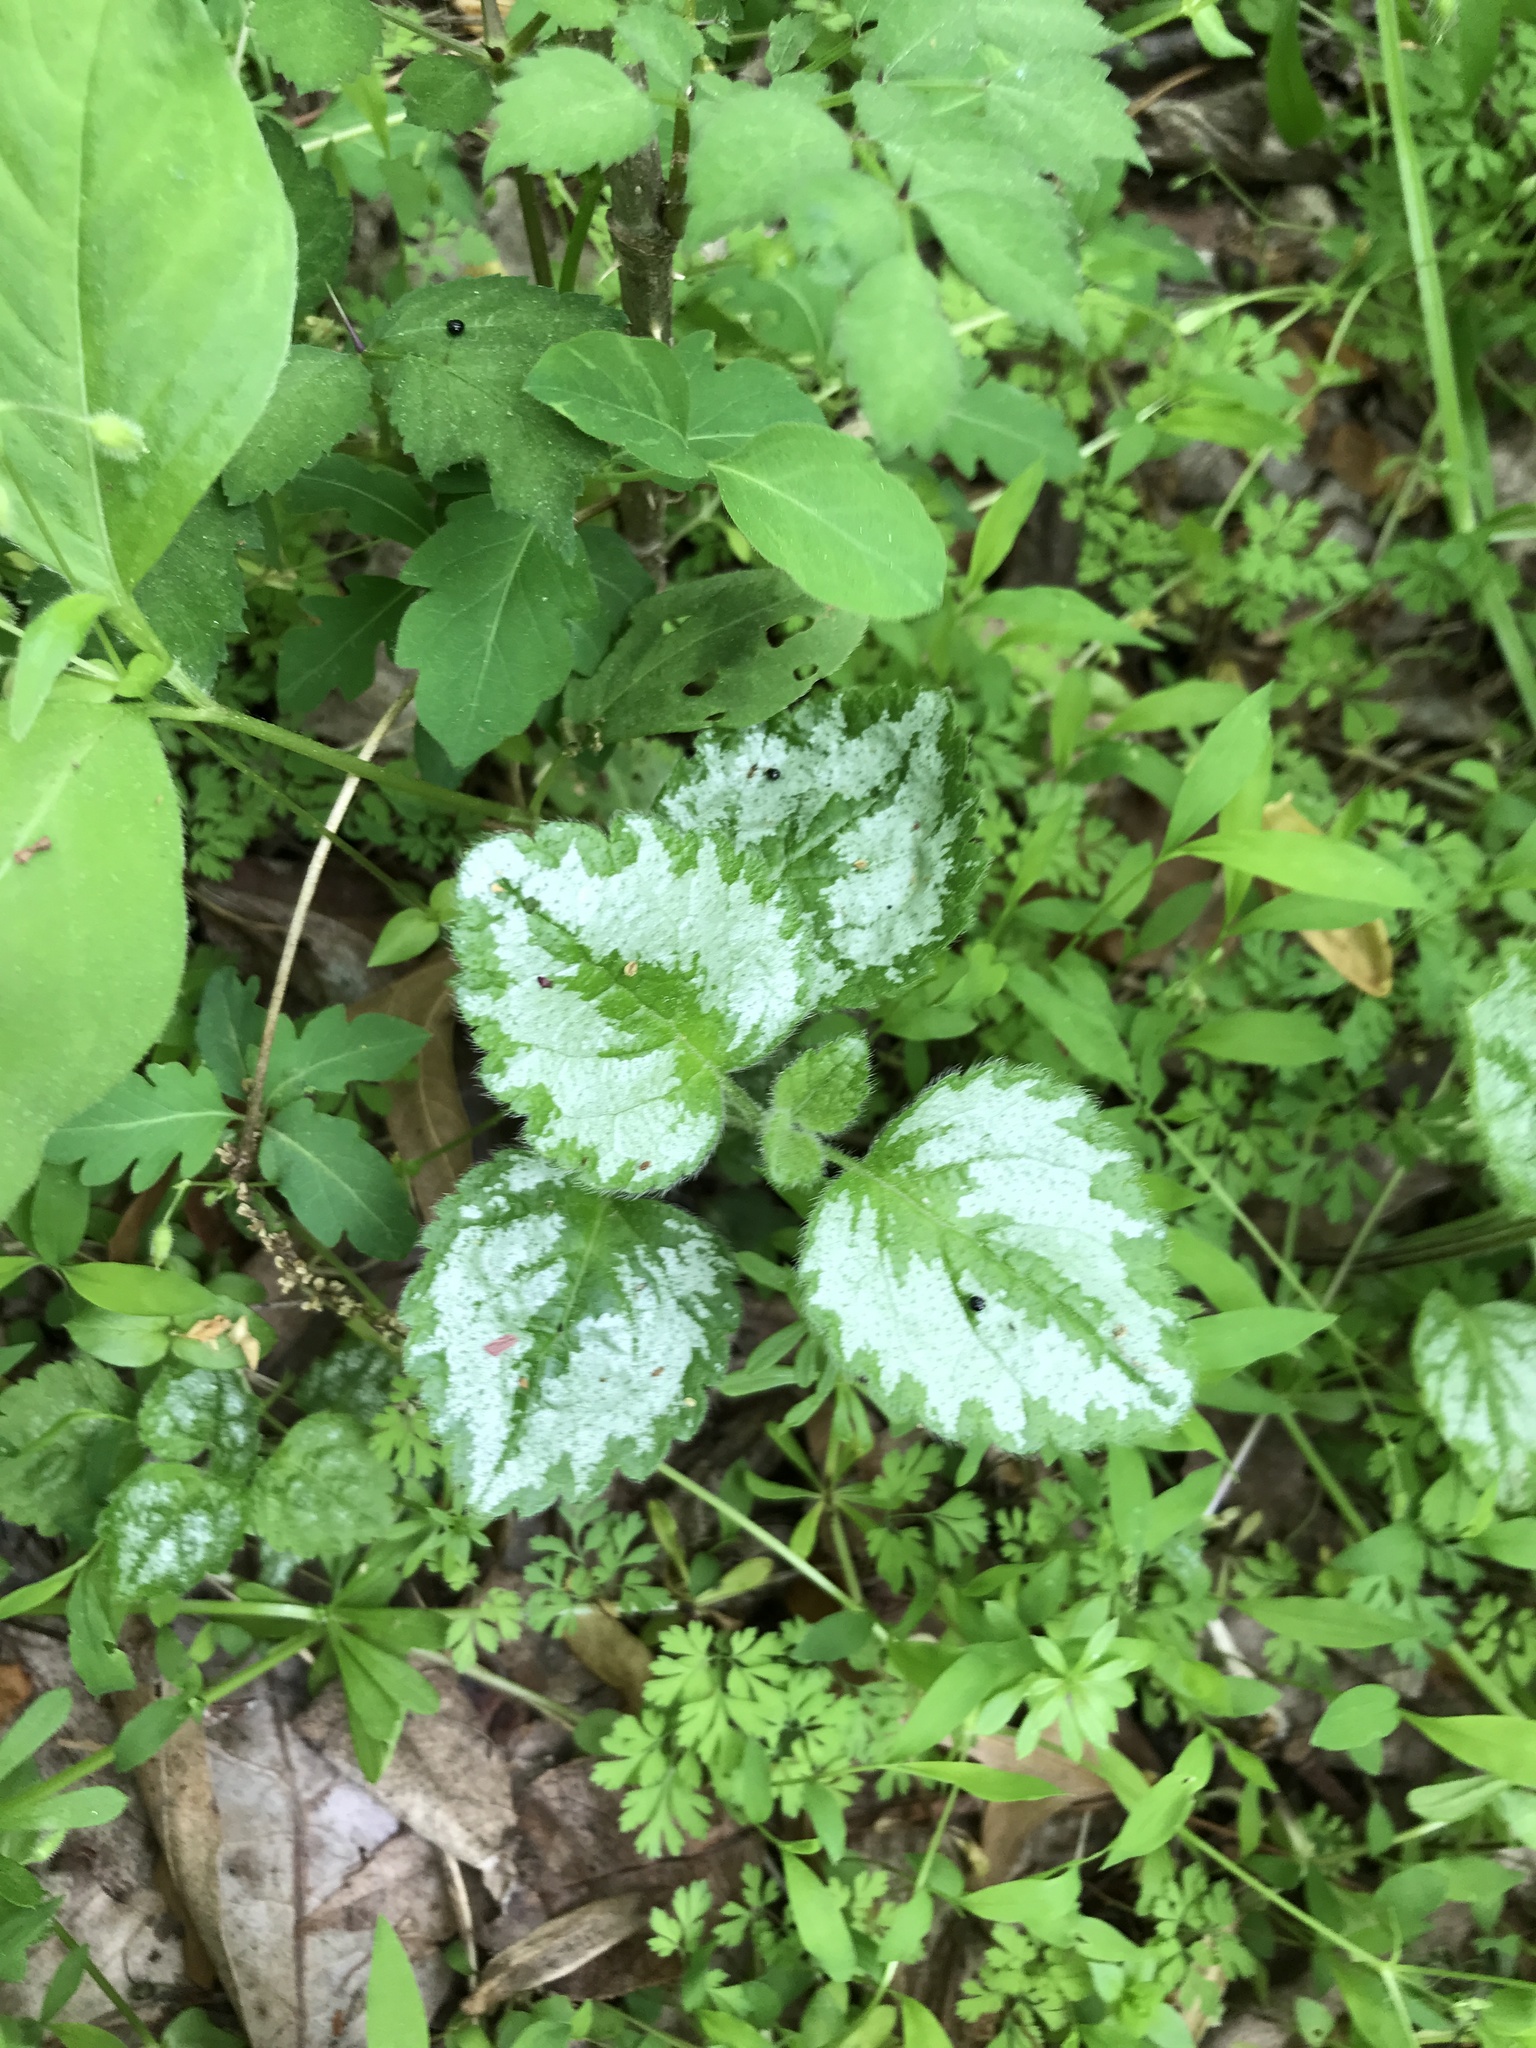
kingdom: Plantae
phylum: Tracheophyta
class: Magnoliopsida
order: Lamiales
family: Lamiaceae
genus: Lamium
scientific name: Lamium galeobdolon
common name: Yellow archangel
